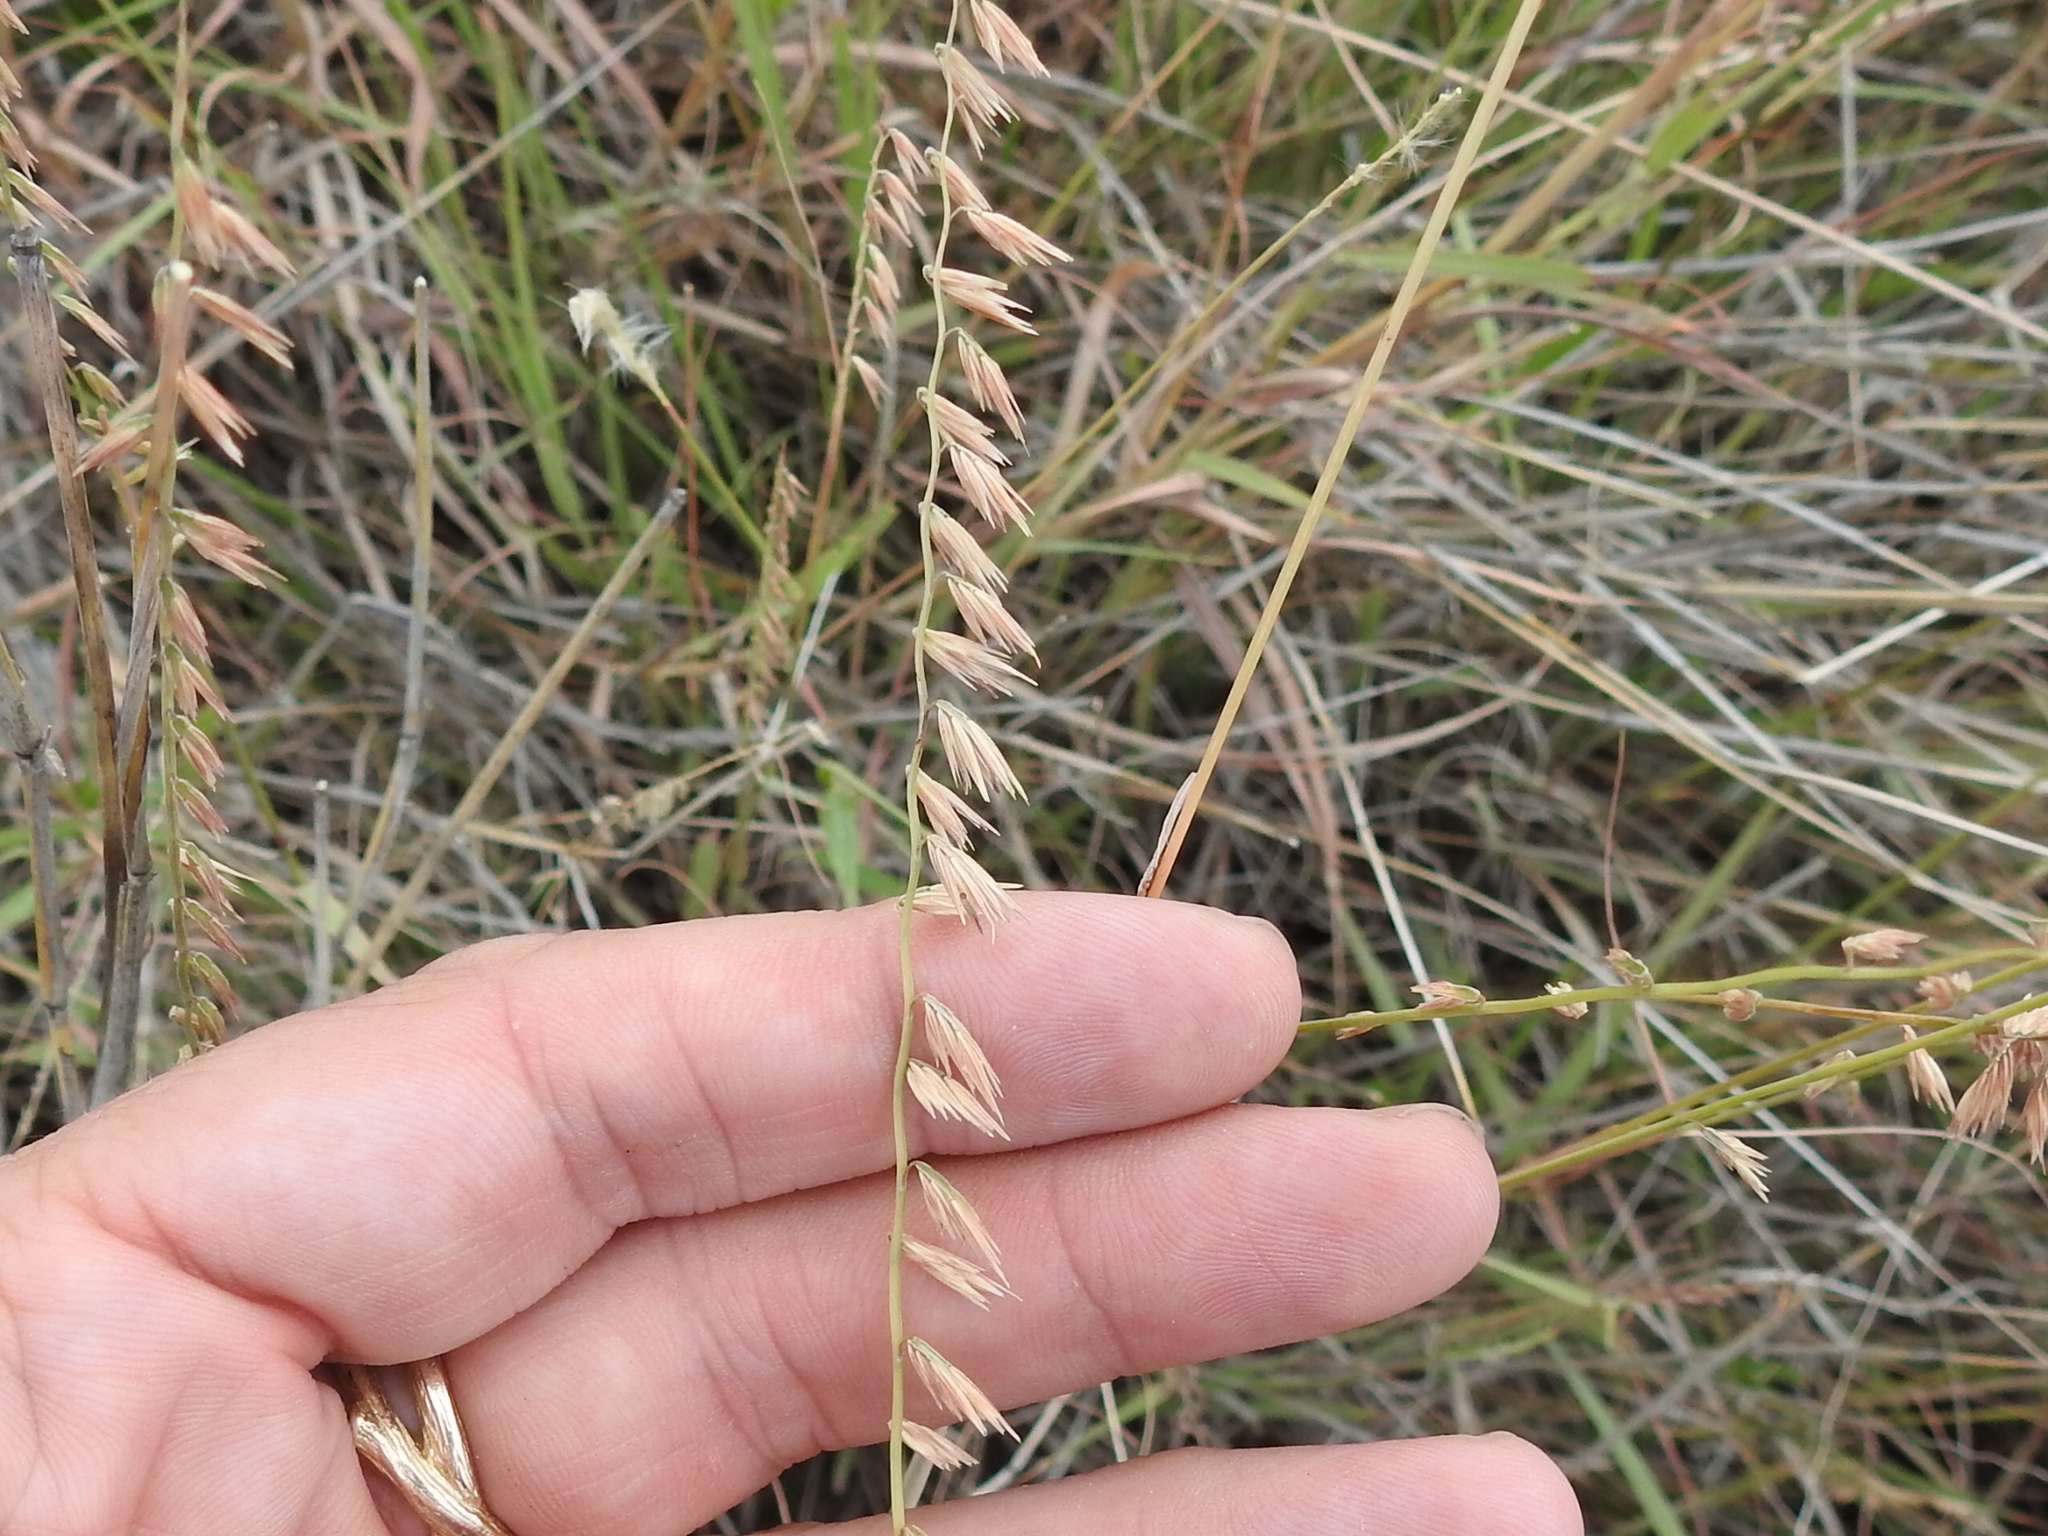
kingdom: Plantae
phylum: Tracheophyta
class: Liliopsida
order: Poales
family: Poaceae
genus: Bouteloua
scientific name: Bouteloua curtipendula
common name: Side-oats grama
